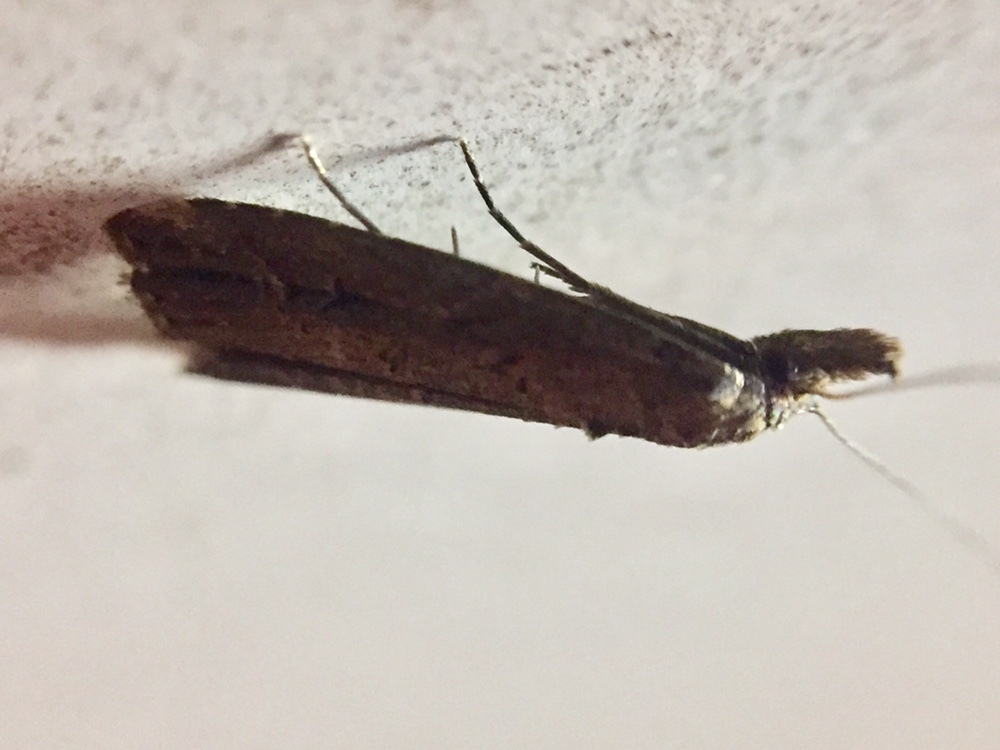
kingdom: Animalia
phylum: Arthropoda
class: Insecta
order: Lepidoptera
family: Erebidae
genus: Schrankia
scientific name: Schrankia costaestrigalis
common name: Pinion-streaked snout
